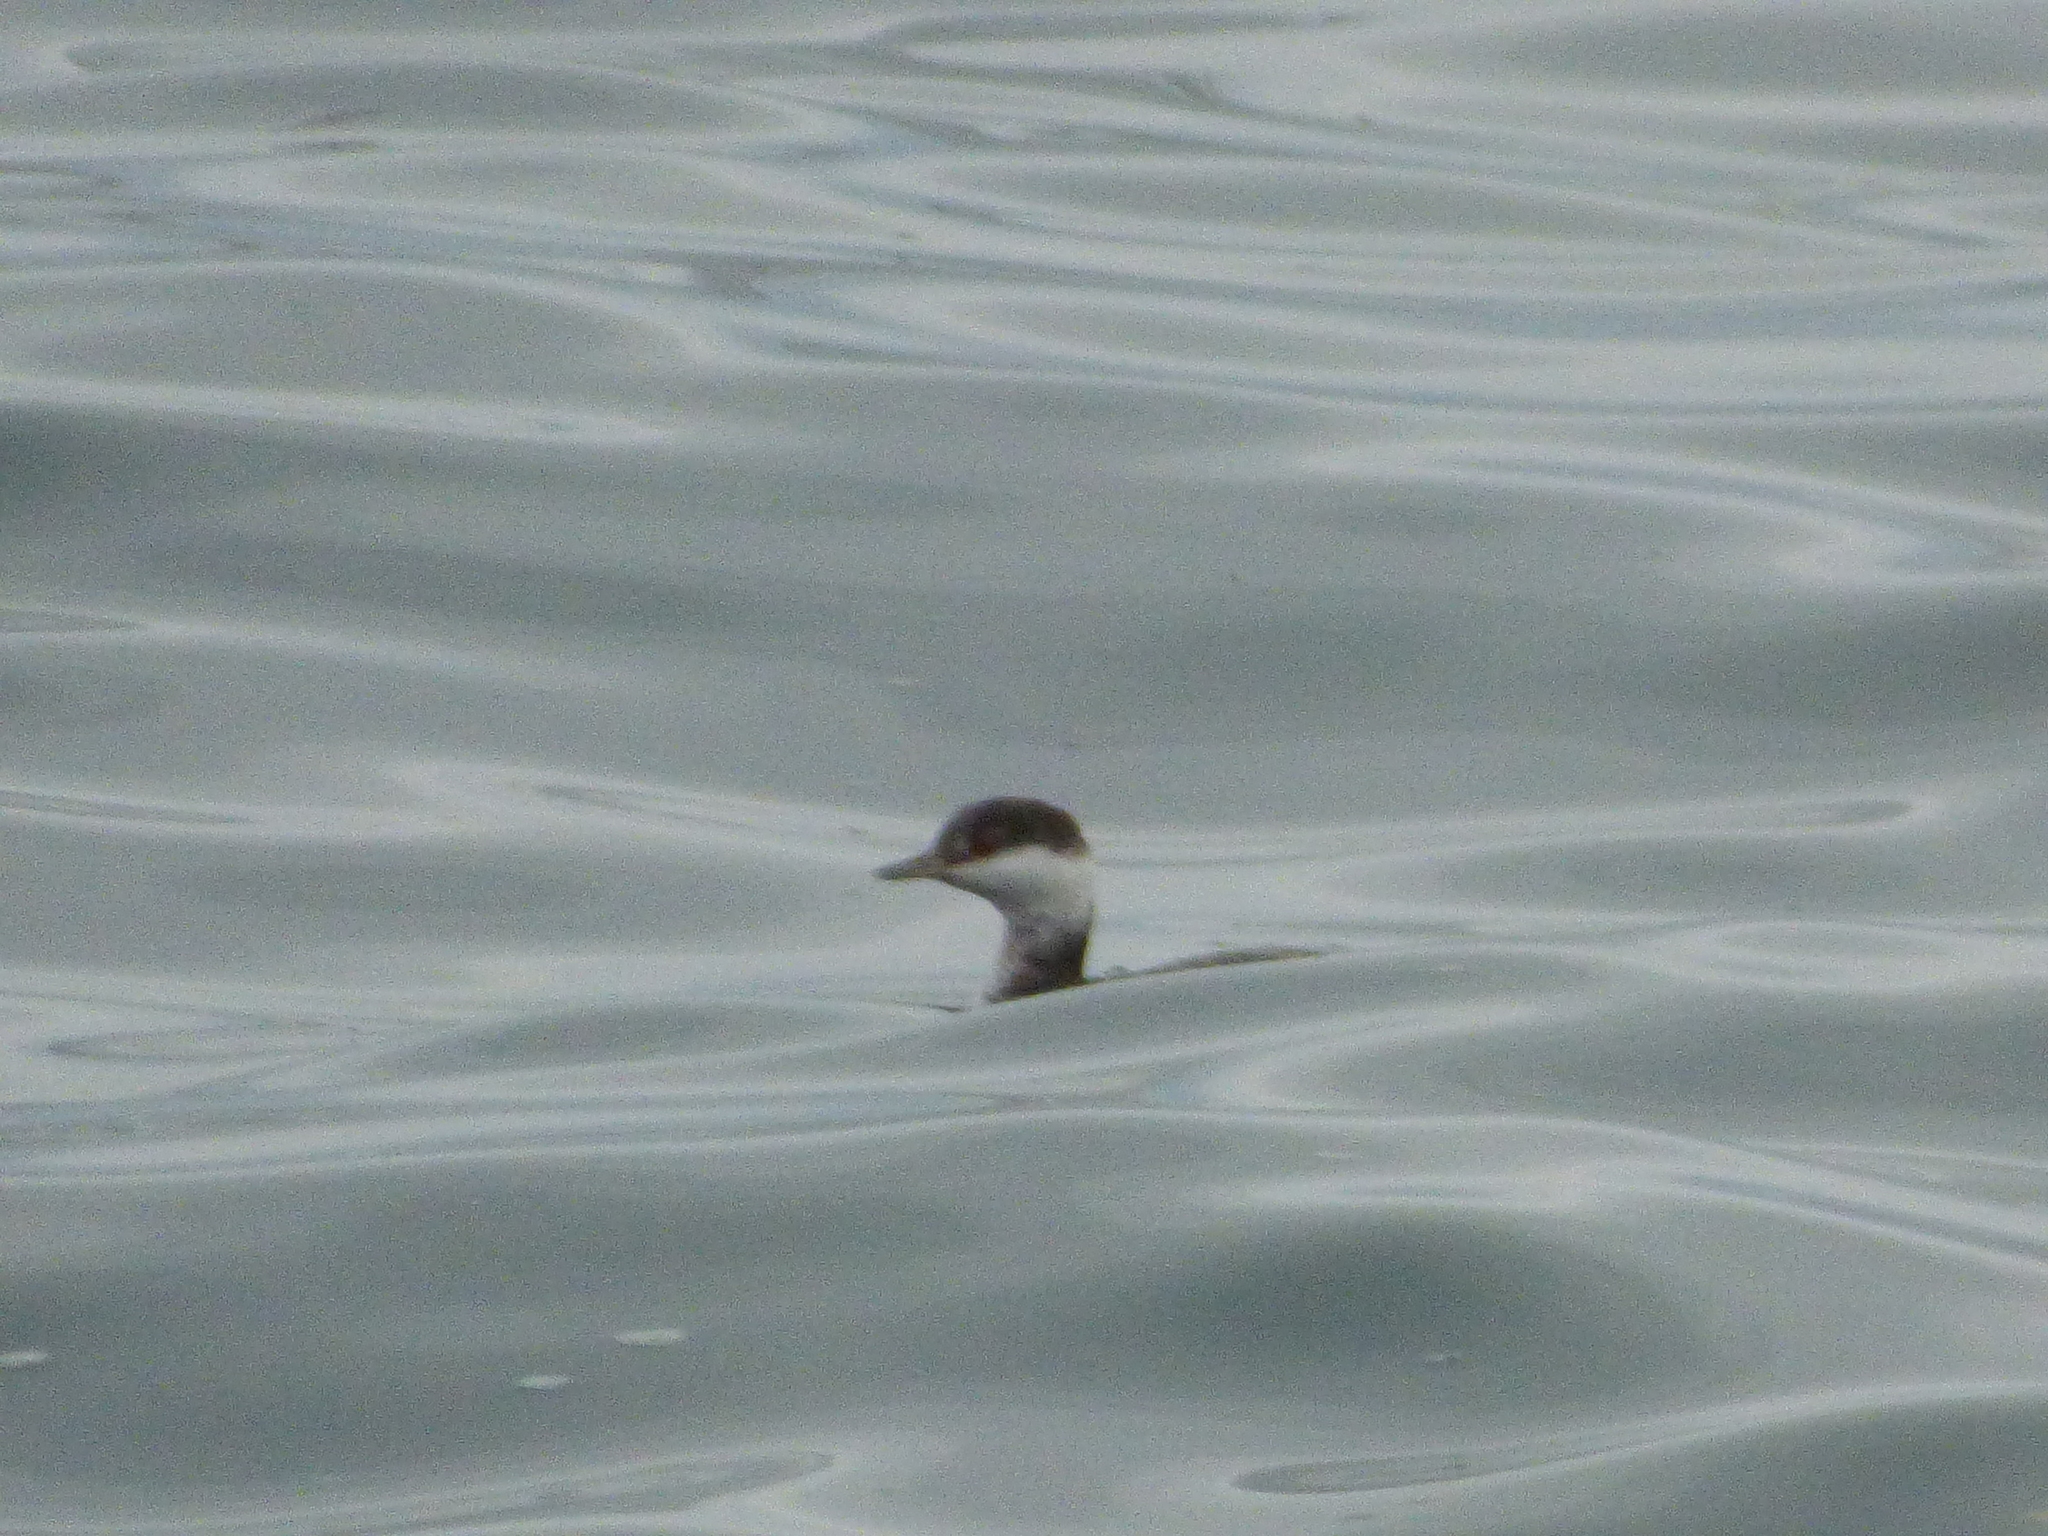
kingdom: Animalia
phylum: Chordata
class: Aves
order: Podicipediformes
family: Podicipedidae
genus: Podiceps
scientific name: Podiceps auritus
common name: Horned grebe
